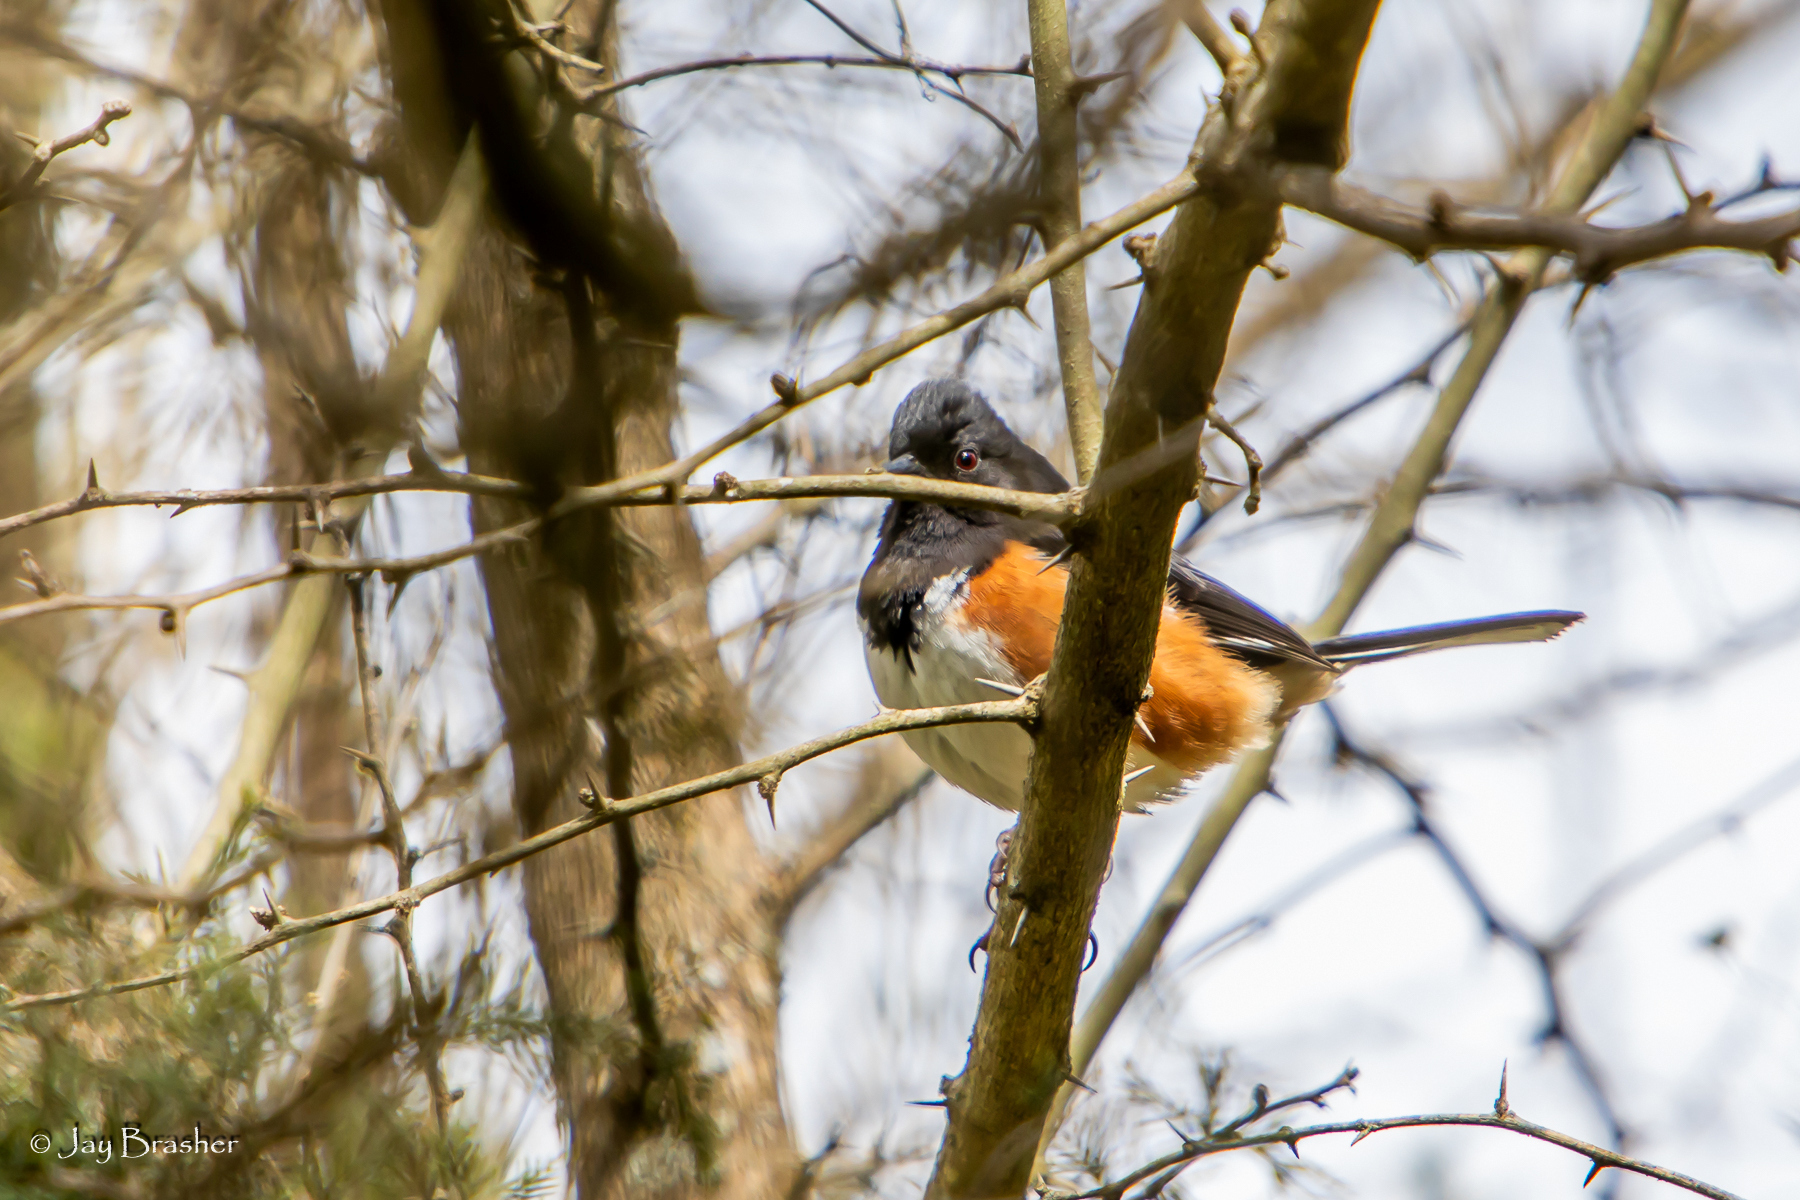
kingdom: Animalia
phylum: Chordata
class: Aves
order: Passeriformes
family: Passerellidae
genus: Pipilo
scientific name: Pipilo erythrophthalmus
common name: Eastern towhee
